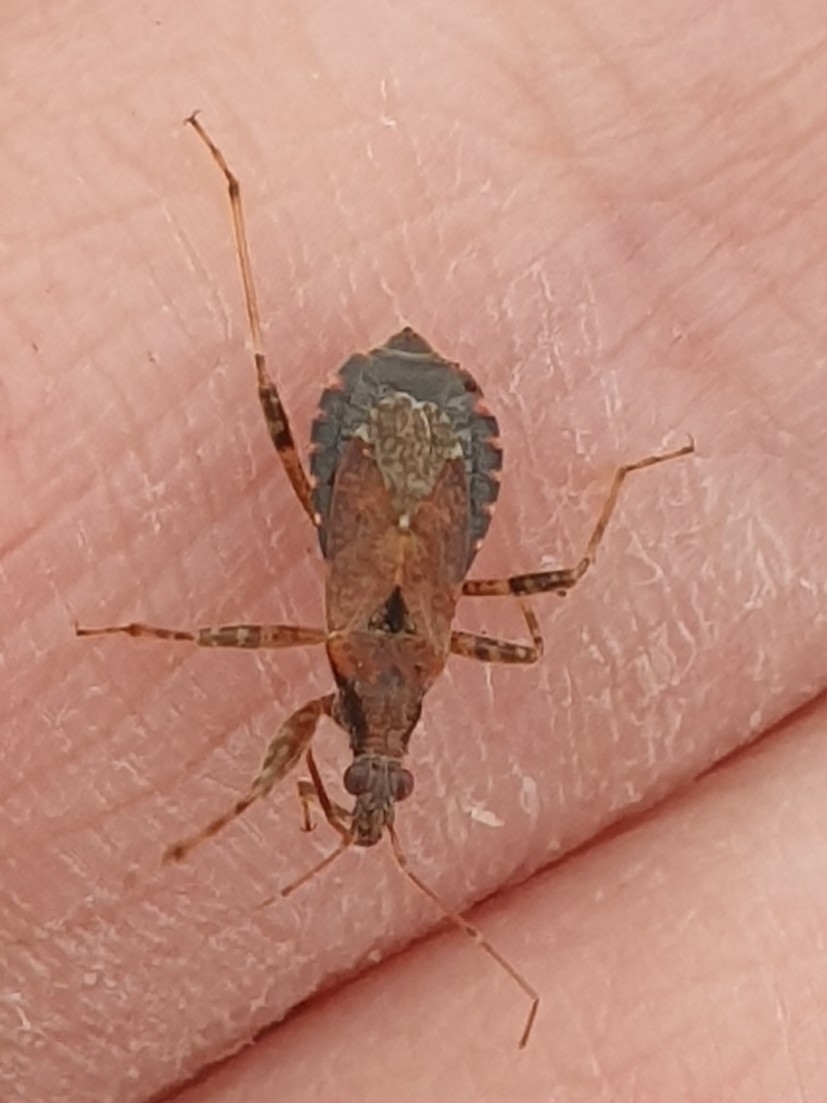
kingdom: Animalia
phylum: Arthropoda
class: Insecta
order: Hemiptera
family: Nabidae
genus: Himacerus
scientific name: Himacerus mirmicoides
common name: Ant damsel bug
